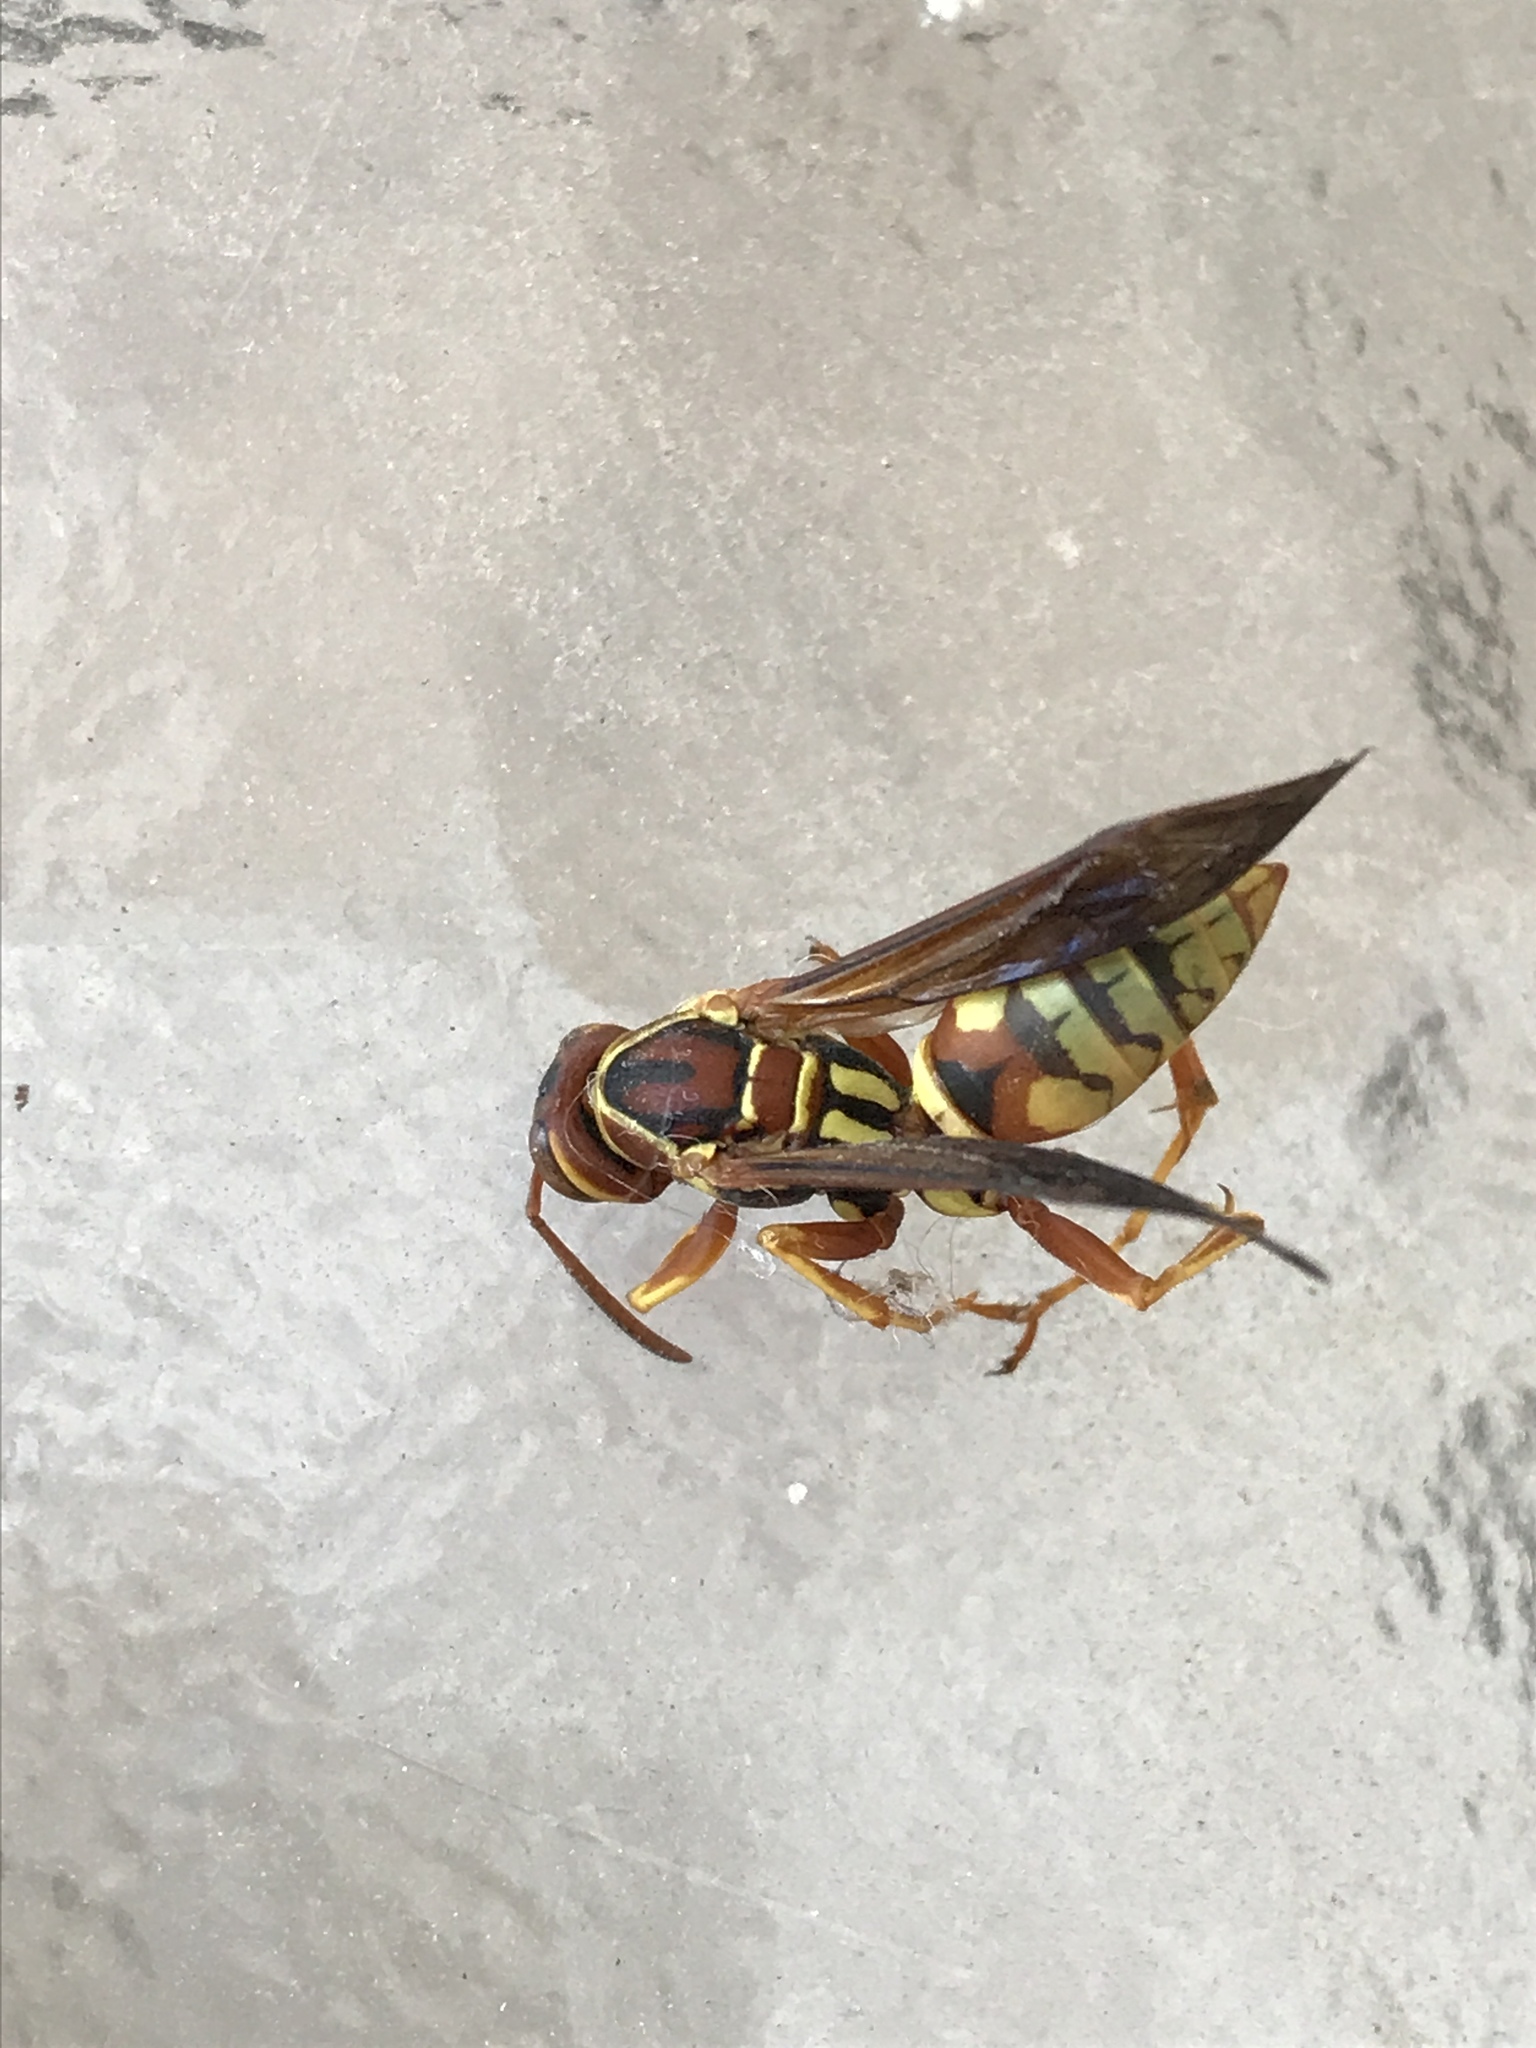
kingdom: Animalia
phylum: Arthropoda
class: Insecta
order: Hymenoptera
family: Eumenidae
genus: Polistes
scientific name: Polistes aurifer
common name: Paper wasp
